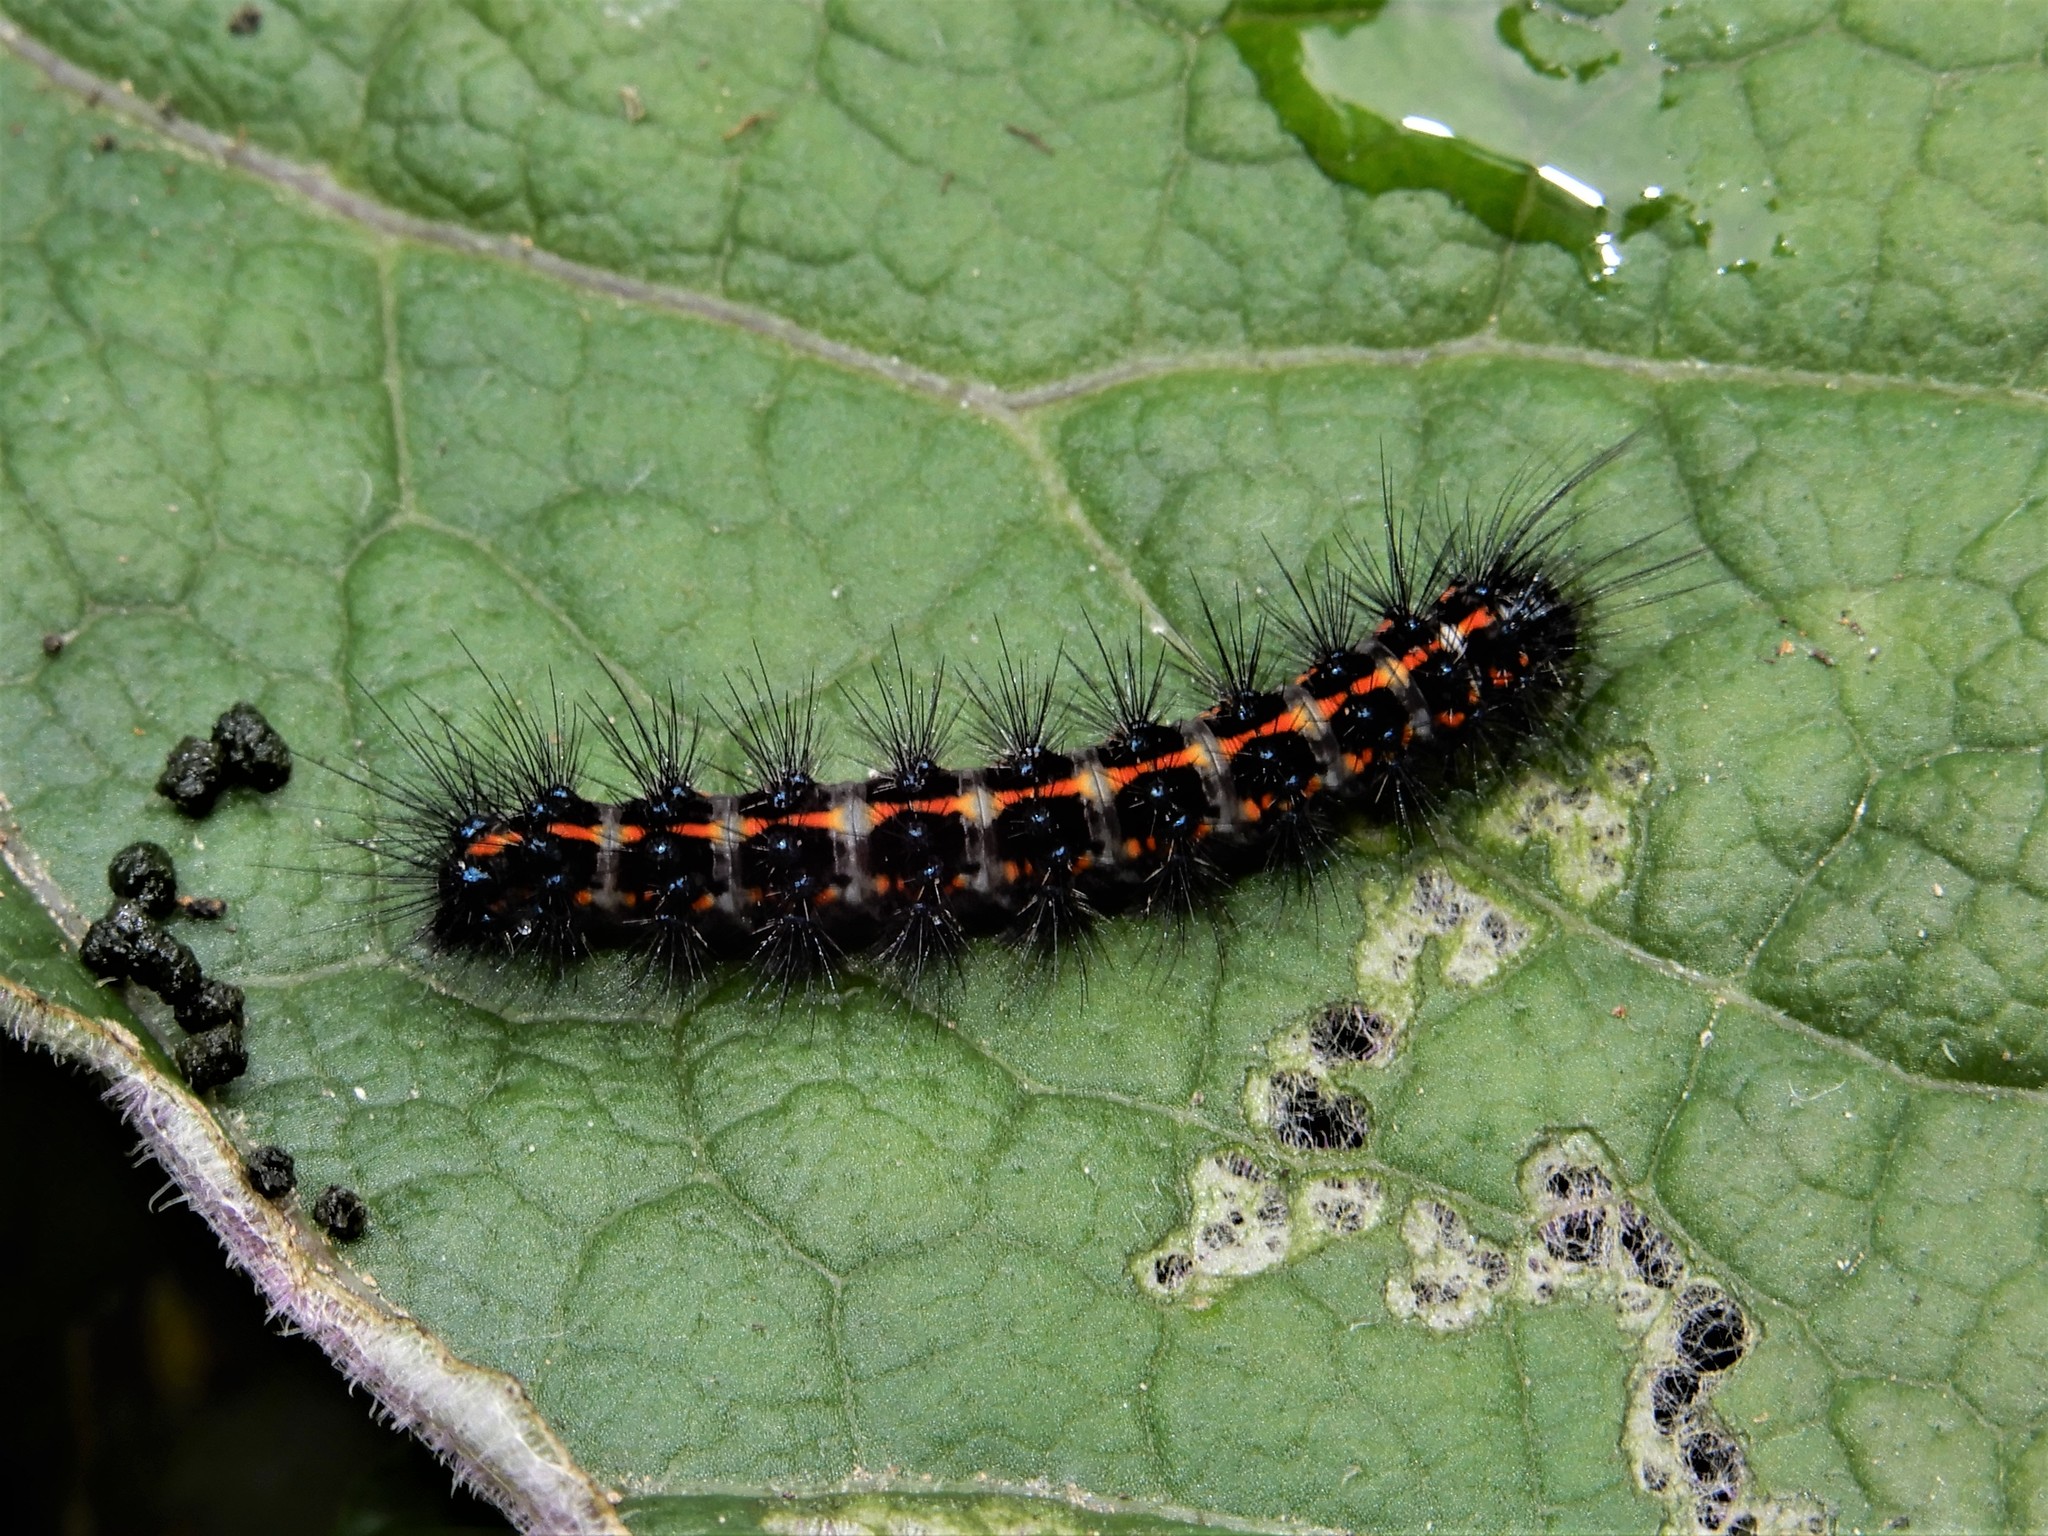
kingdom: Animalia
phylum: Arthropoda
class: Insecta
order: Lepidoptera
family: Erebidae
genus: Nyctemera
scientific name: Nyctemera annulatum
